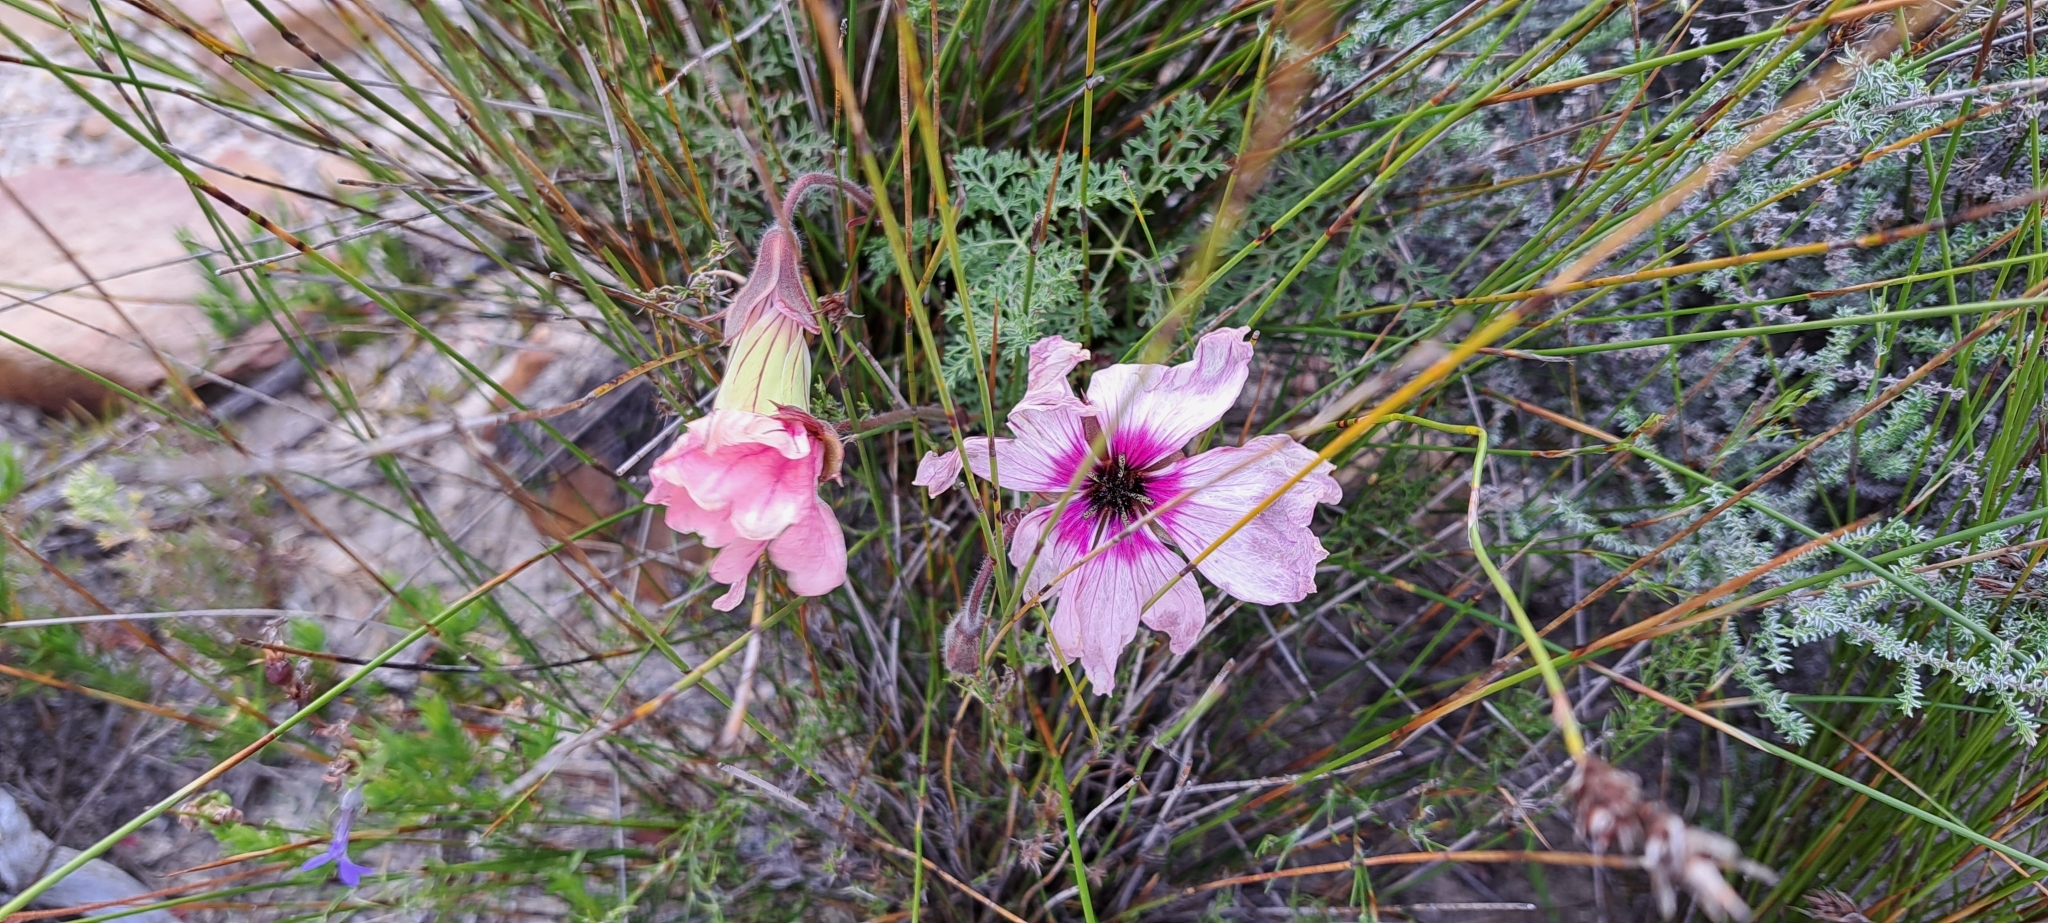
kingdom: Plantae
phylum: Tracheophyta
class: Magnoliopsida
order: Geraniales
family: Geraniaceae
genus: Monsonia
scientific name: Monsonia speciosa
